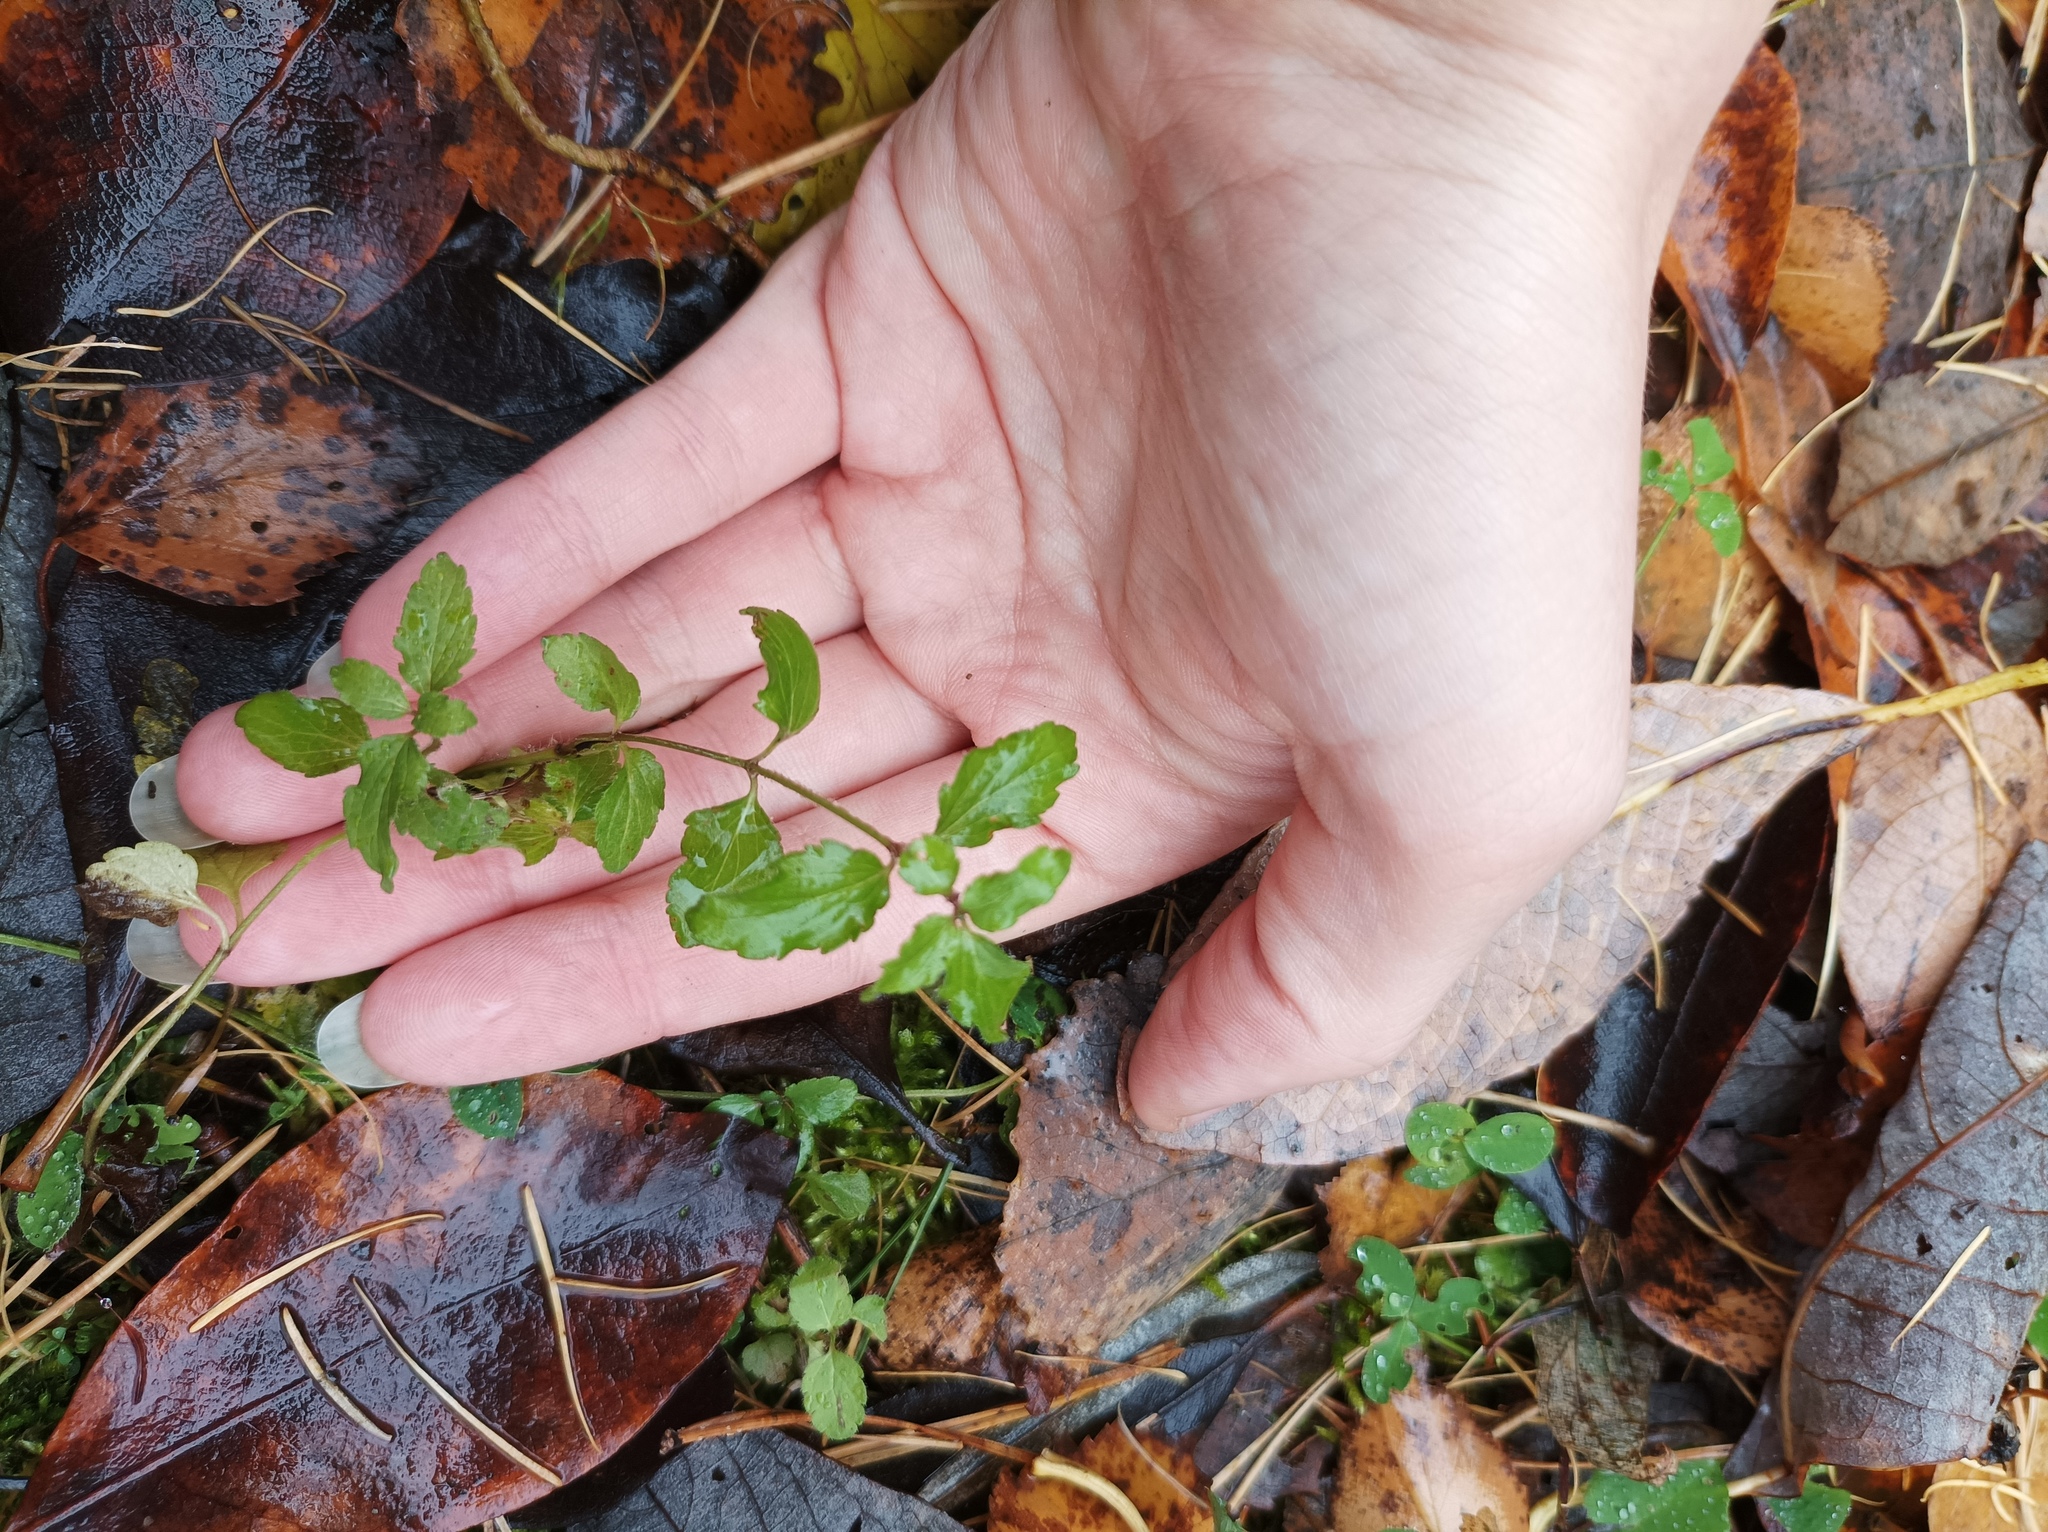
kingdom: Plantae
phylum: Tracheophyta
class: Magnoliopsida
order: Lamiales
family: Plantaginaceae
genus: Veronica
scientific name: Veronica chamaedrys
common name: Germander speedwell
